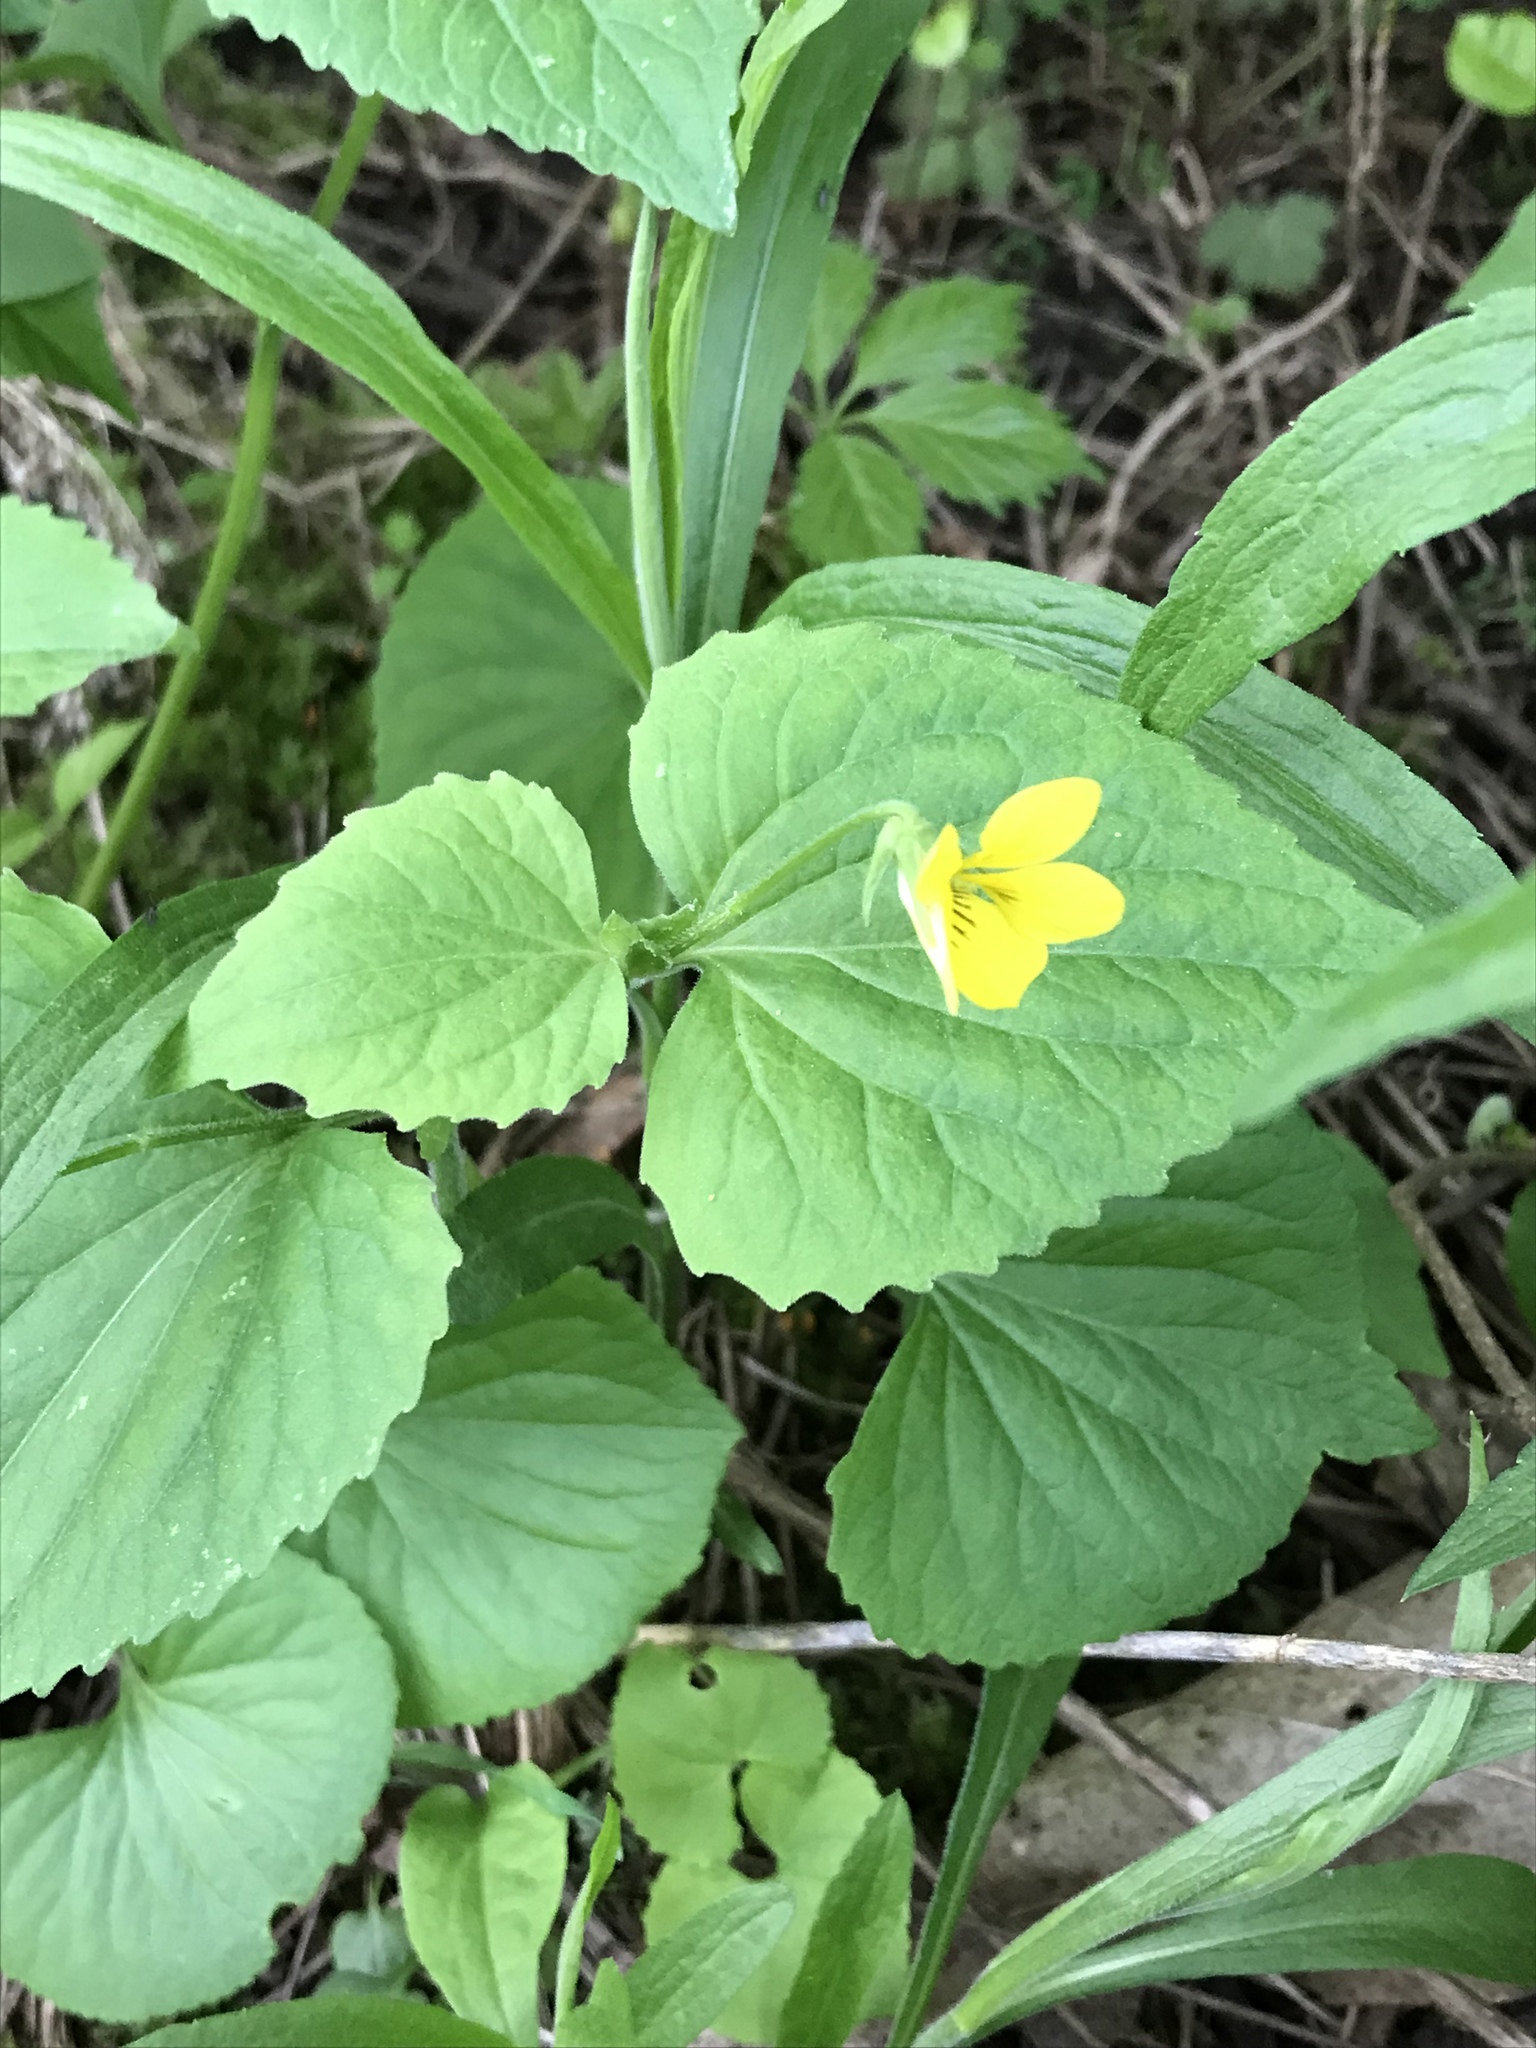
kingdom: Plantae
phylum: Tracheophyta
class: Magnoliopsida
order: Malpighiales
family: Violaceae
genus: Viola
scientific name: Viola eriocarpa
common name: Smooth yellow violet
